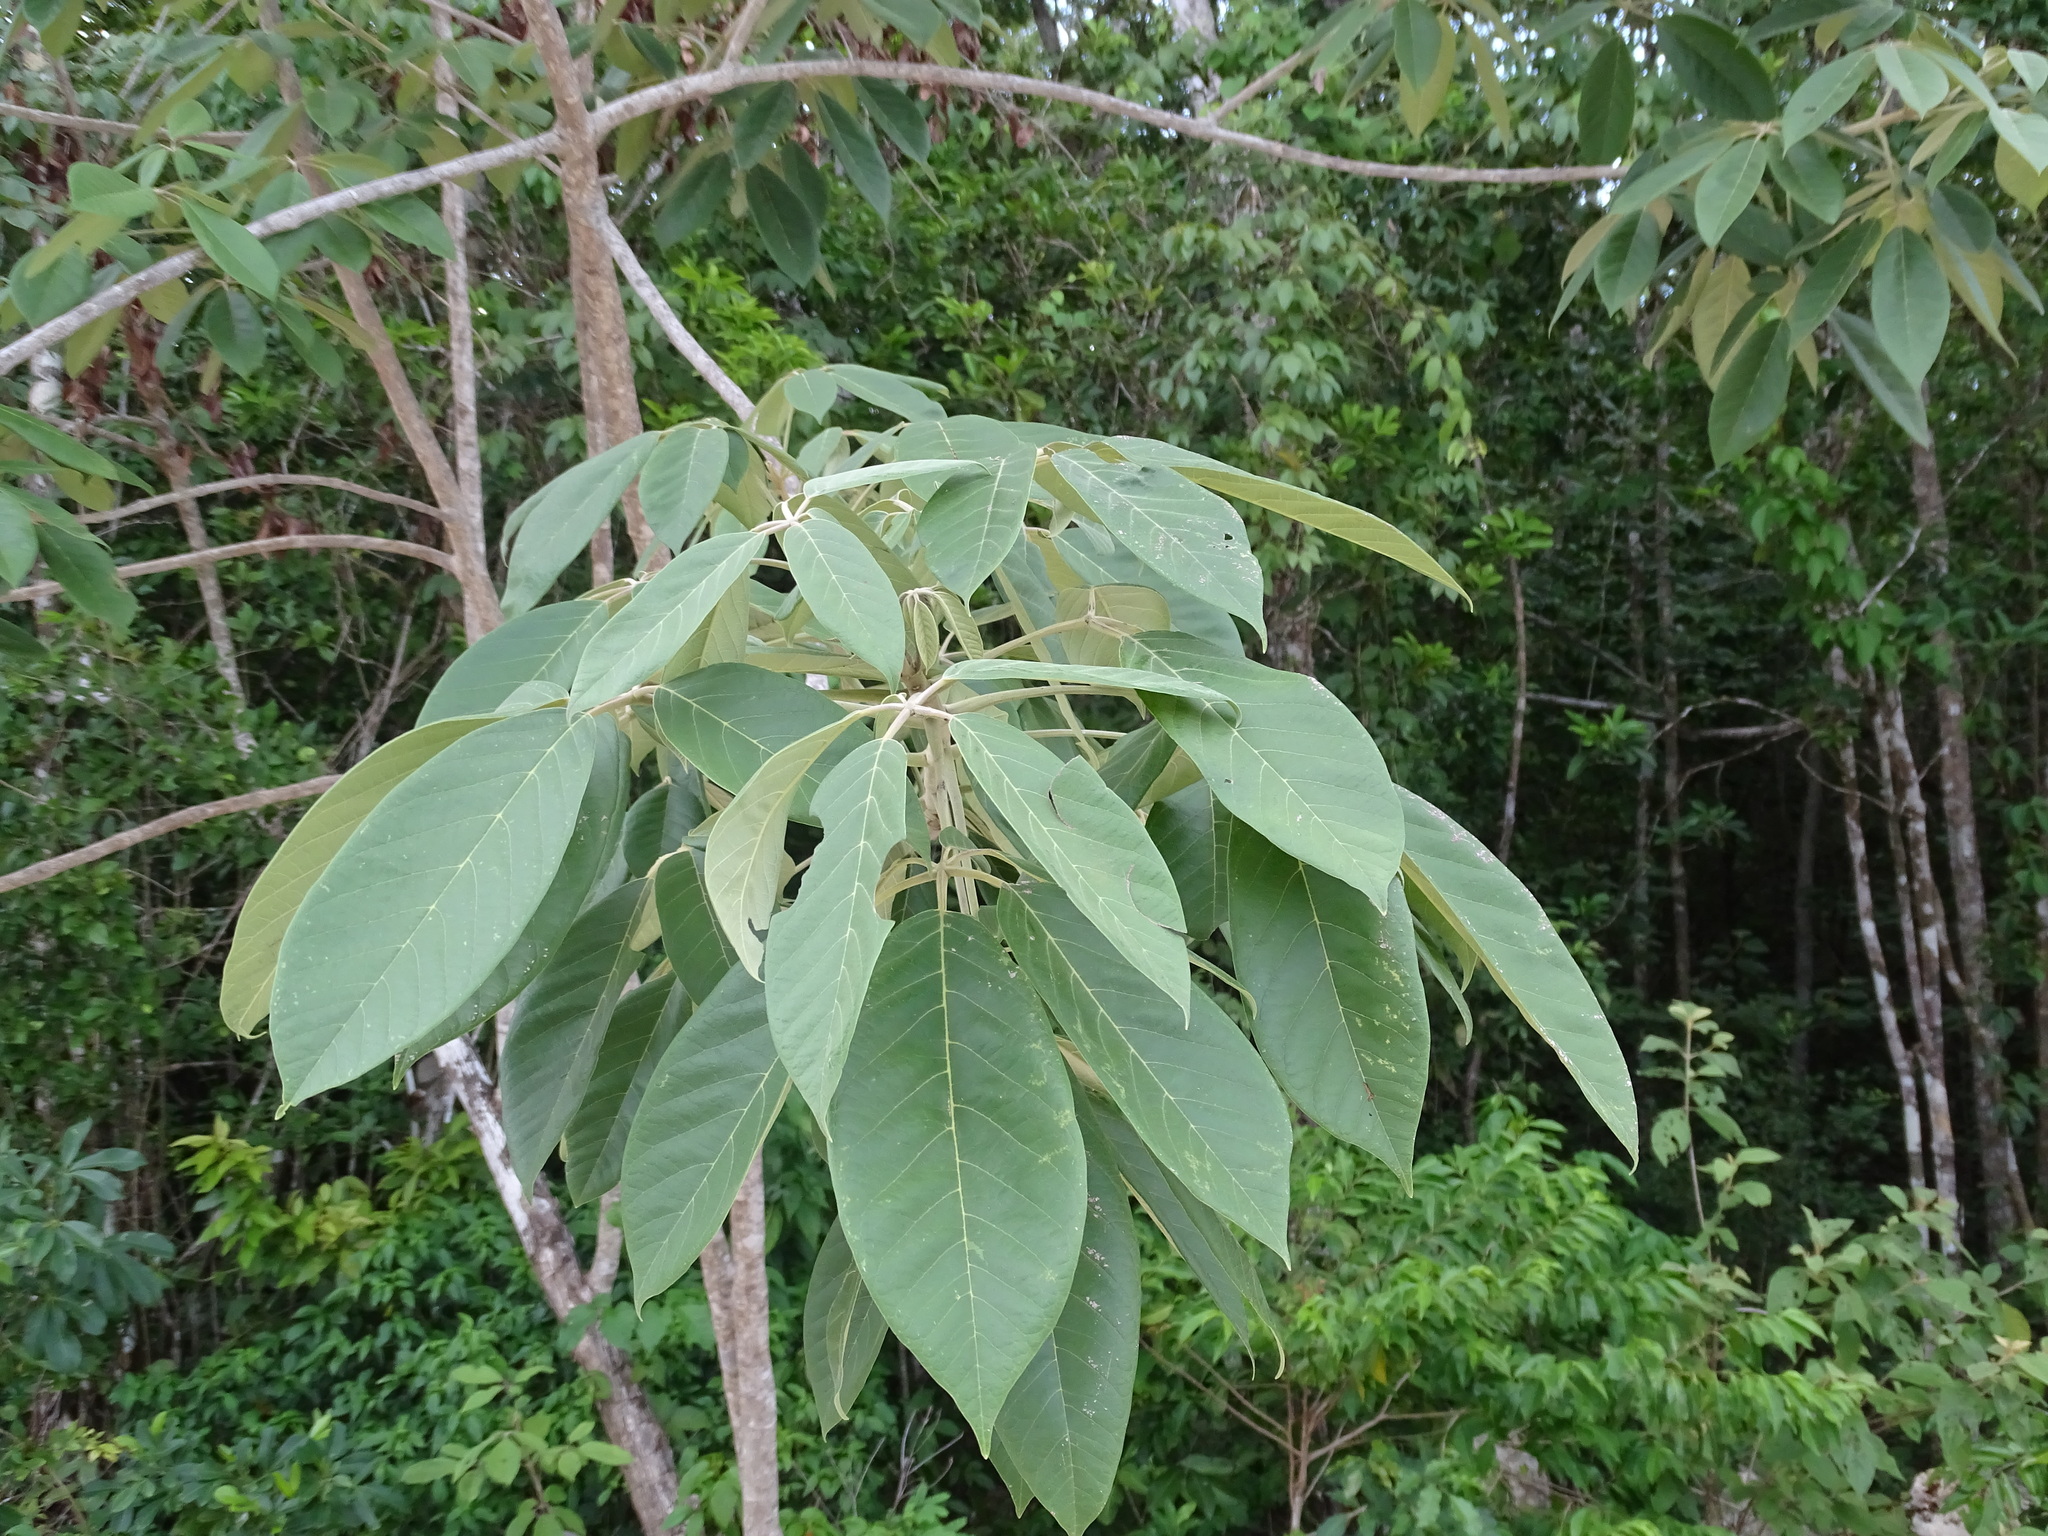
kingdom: Plantae
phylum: Tracheophyta
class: Magnoliopsida
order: Lamiales
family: Lamiaceae
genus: Vitex
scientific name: Vitex gaumeri
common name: Fiddlewood
